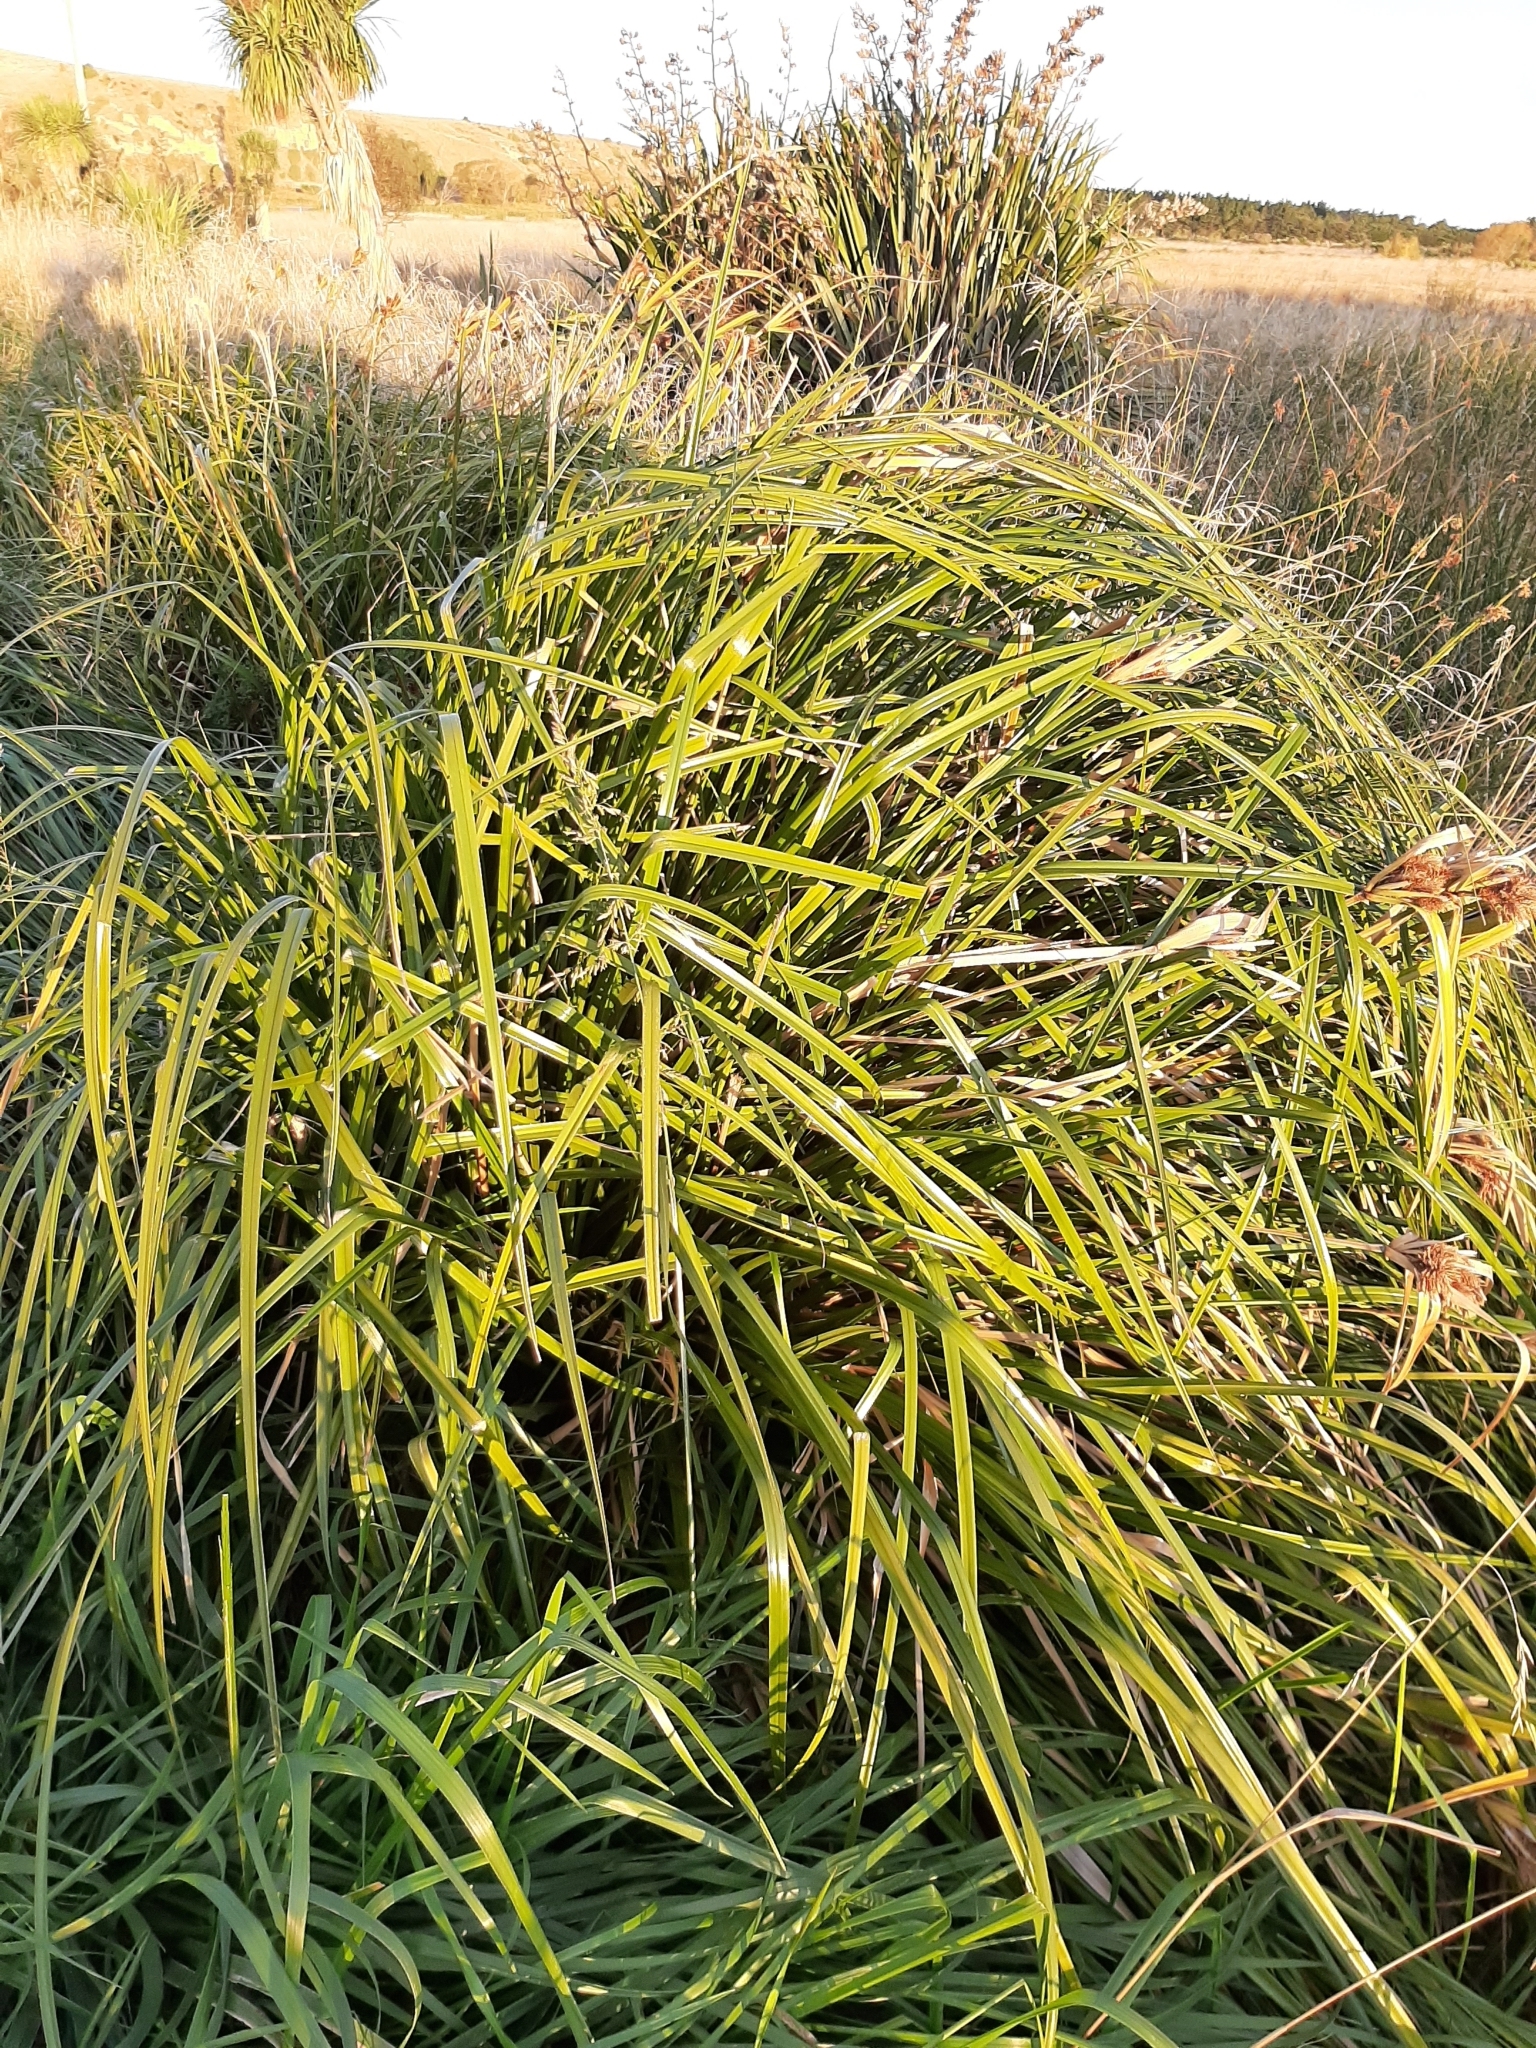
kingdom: Plantae
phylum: Tracheophyta
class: Liliopsida
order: Poales
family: Cyperaceae
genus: Cyperus
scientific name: Cyperus ustulatus
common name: Giant umbrella-sedge
